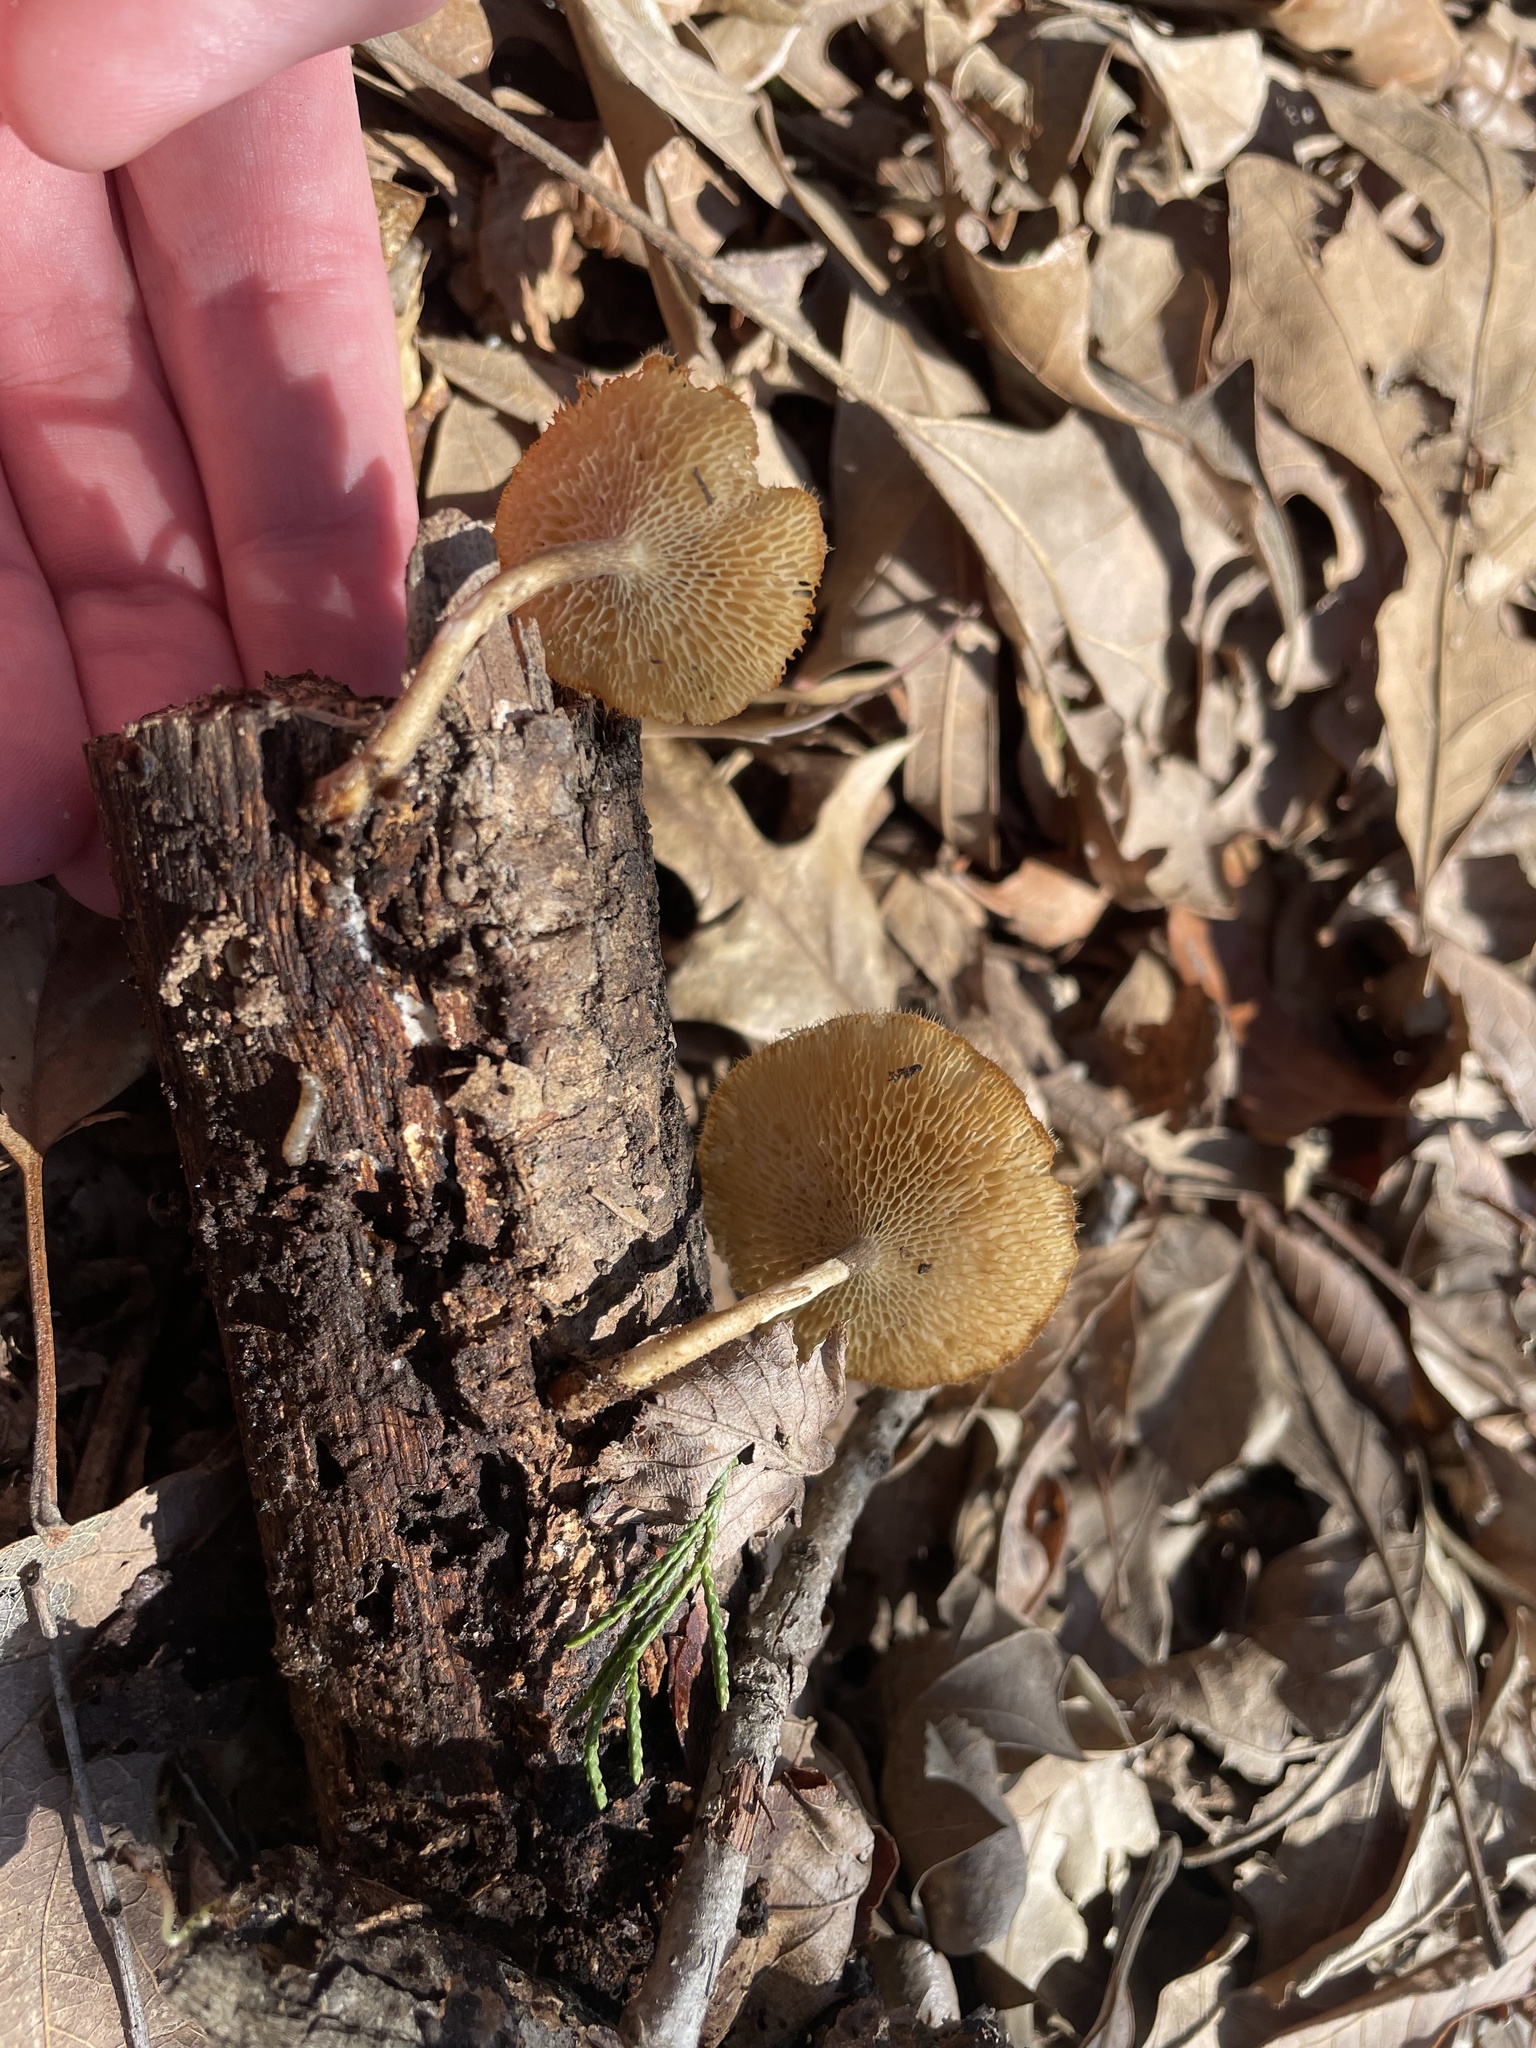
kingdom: Fungi
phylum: Basidiomycota
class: Agaricomycetes
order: Polyporales
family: Polyporaceae
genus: Lentinus
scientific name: Lentinus arcularius
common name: Spring polypore
